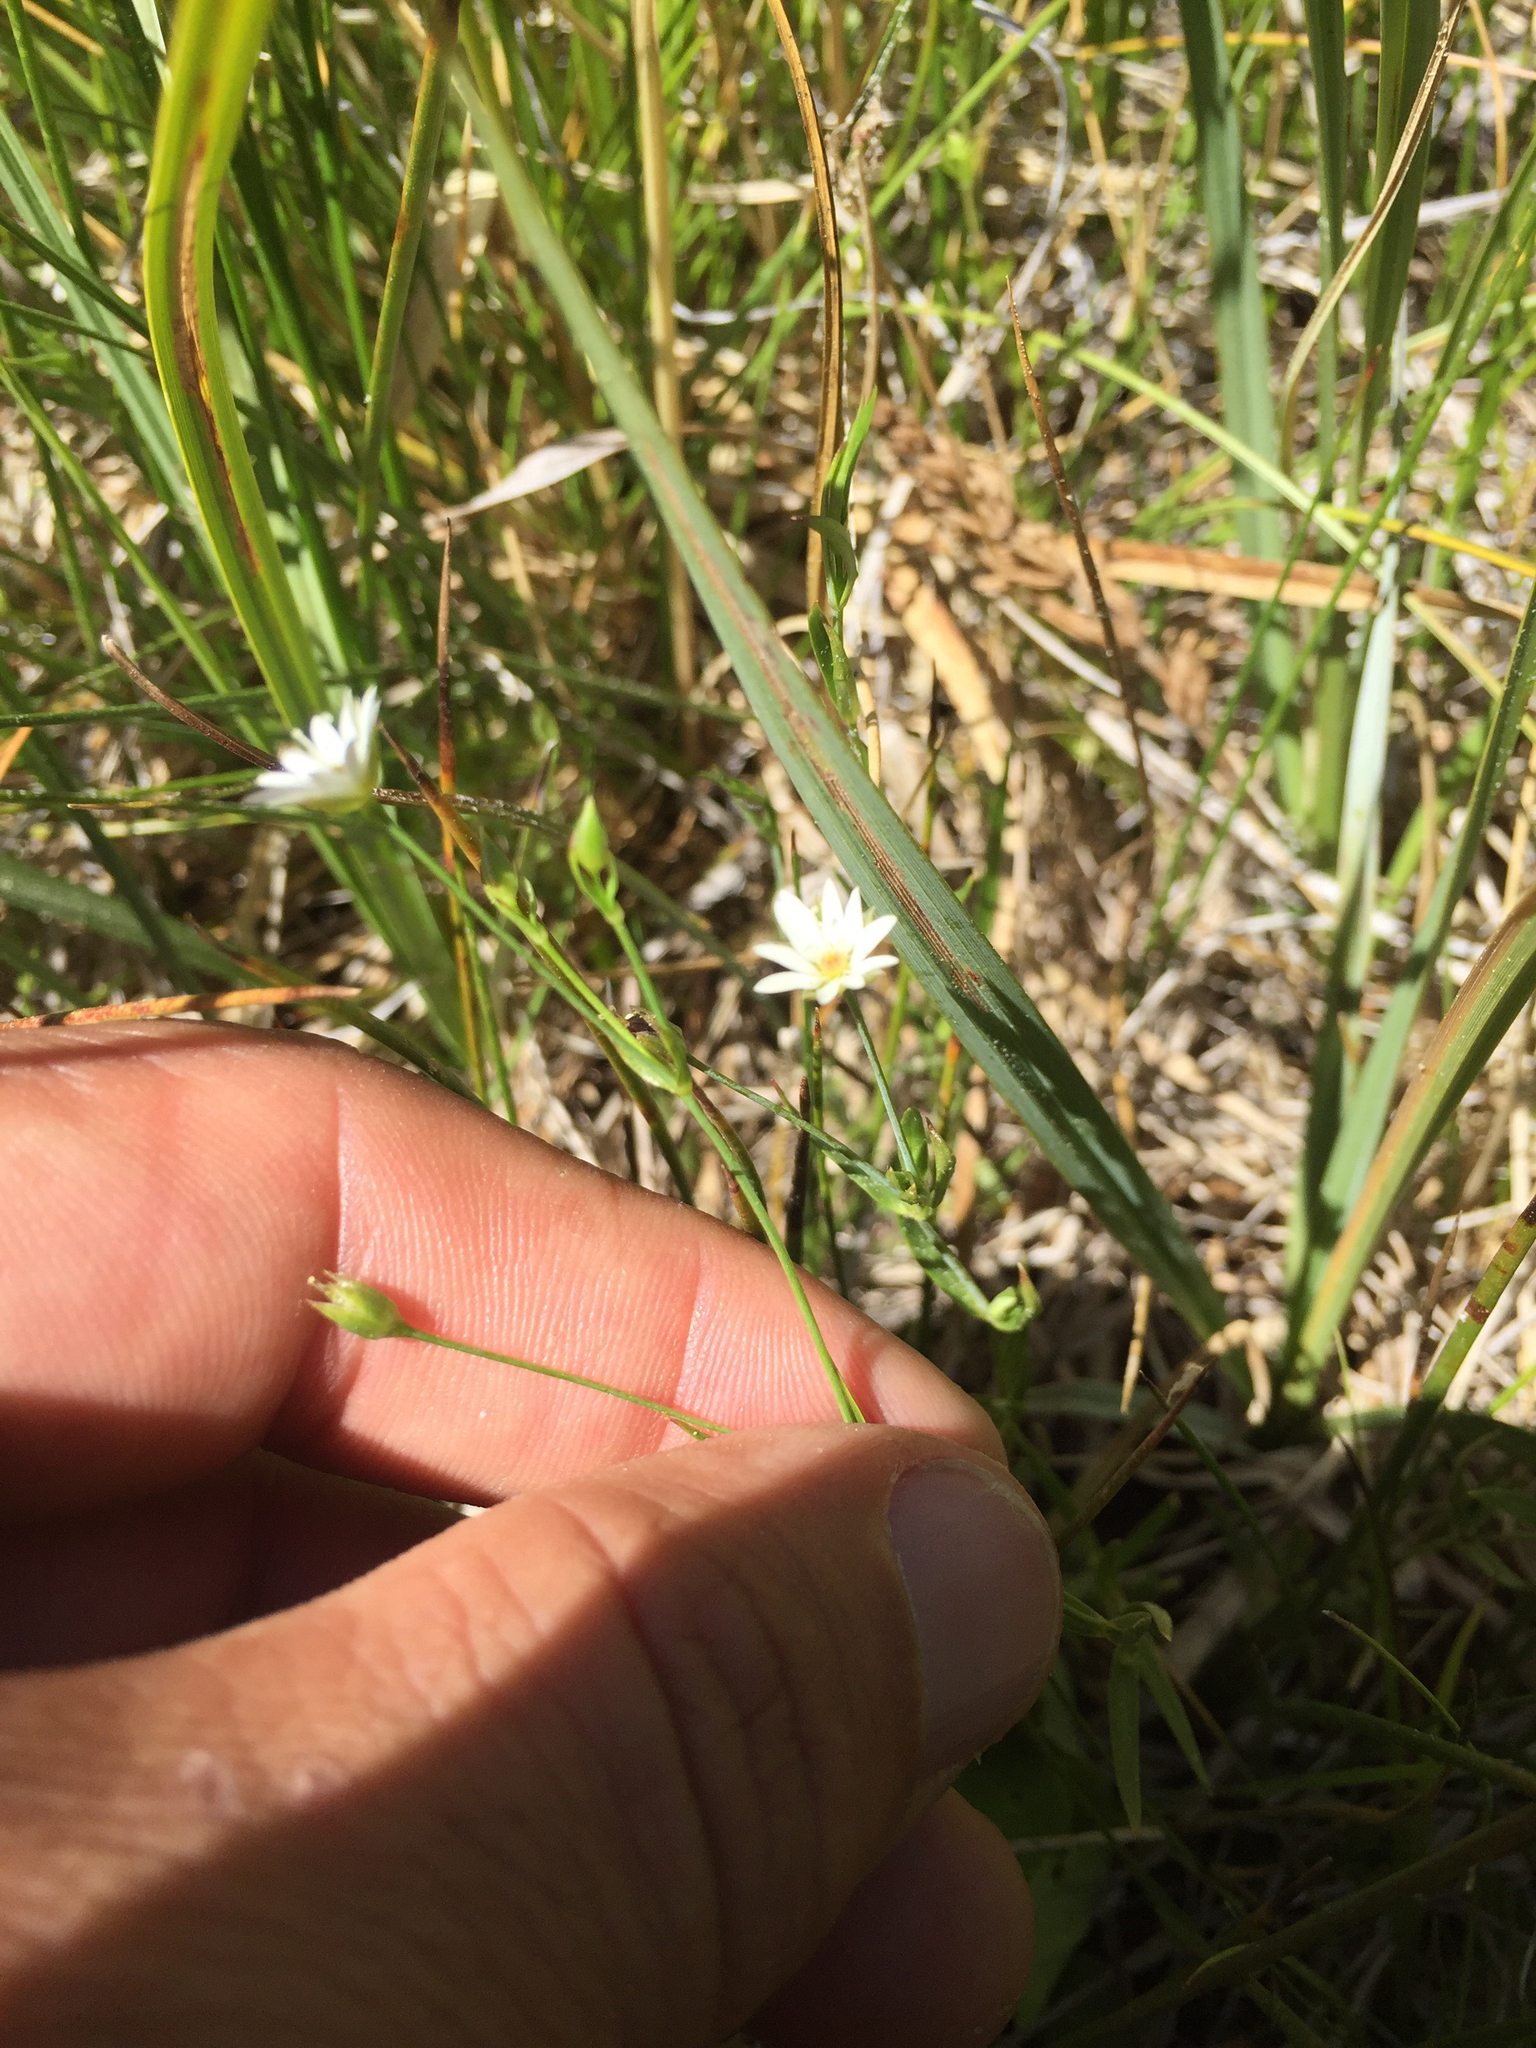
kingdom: Plantae
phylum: Tracheophyta
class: Magnoliopsida
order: Caryophyllales
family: Caryophyllaceae
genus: Stellaria
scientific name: Stellaria longipes
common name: Goldie's starwort
